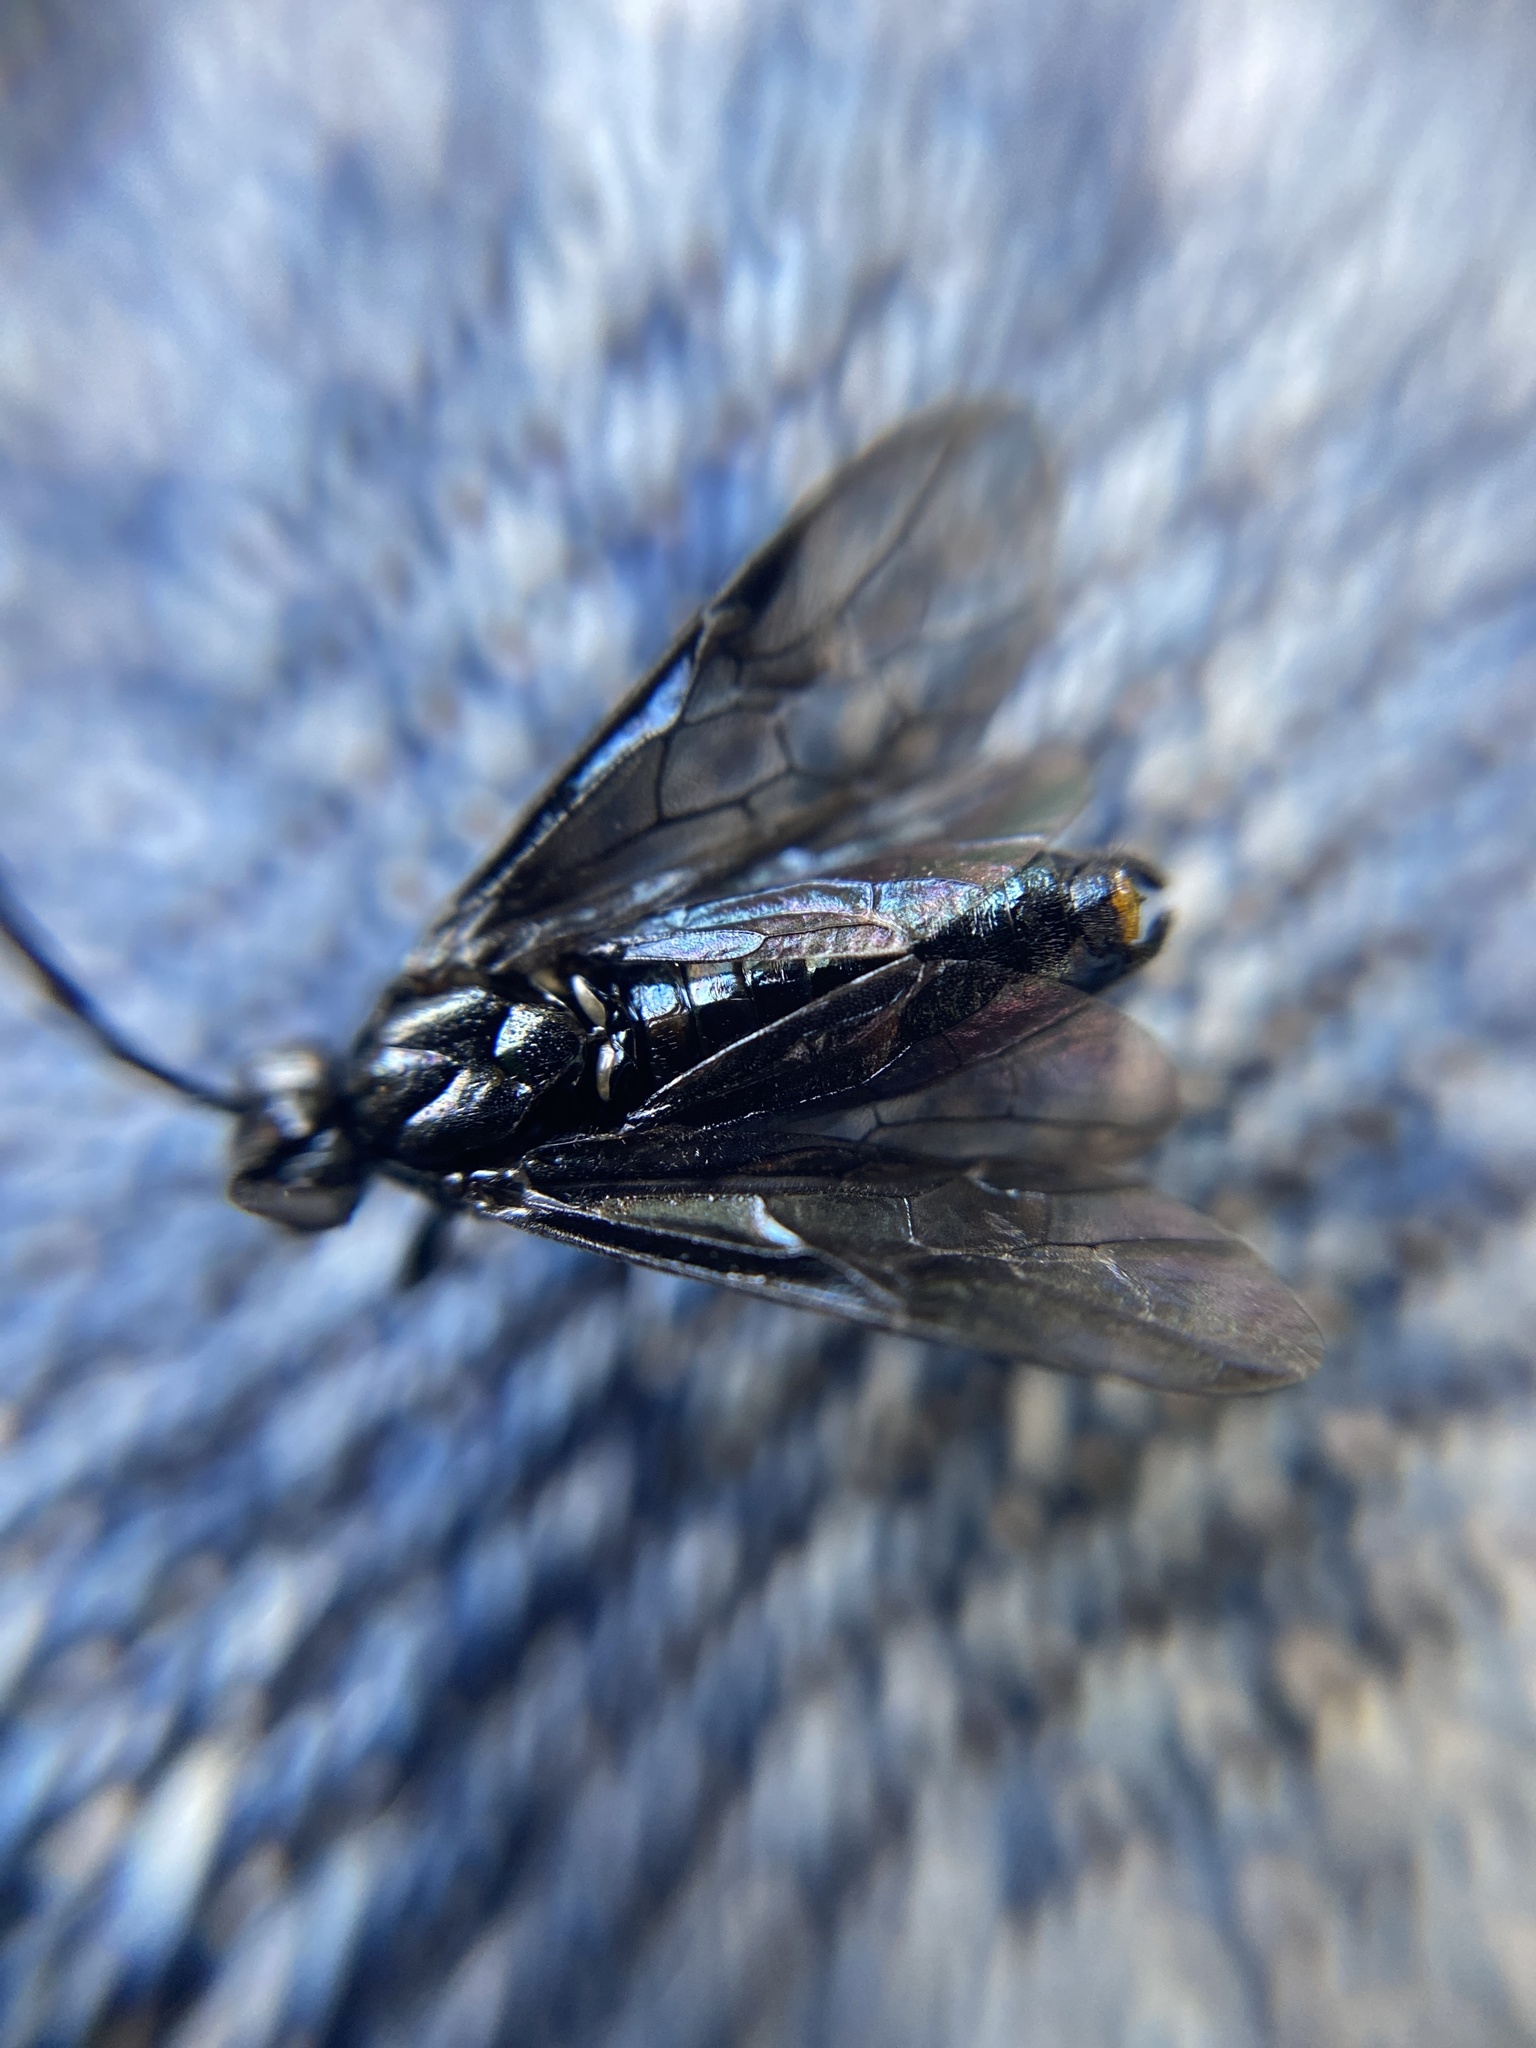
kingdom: Animalia
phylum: Arthropoda
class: Insecta
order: Hymenoptera
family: Argidae
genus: Arge
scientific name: Arge berberidis
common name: Berberis sawfly
